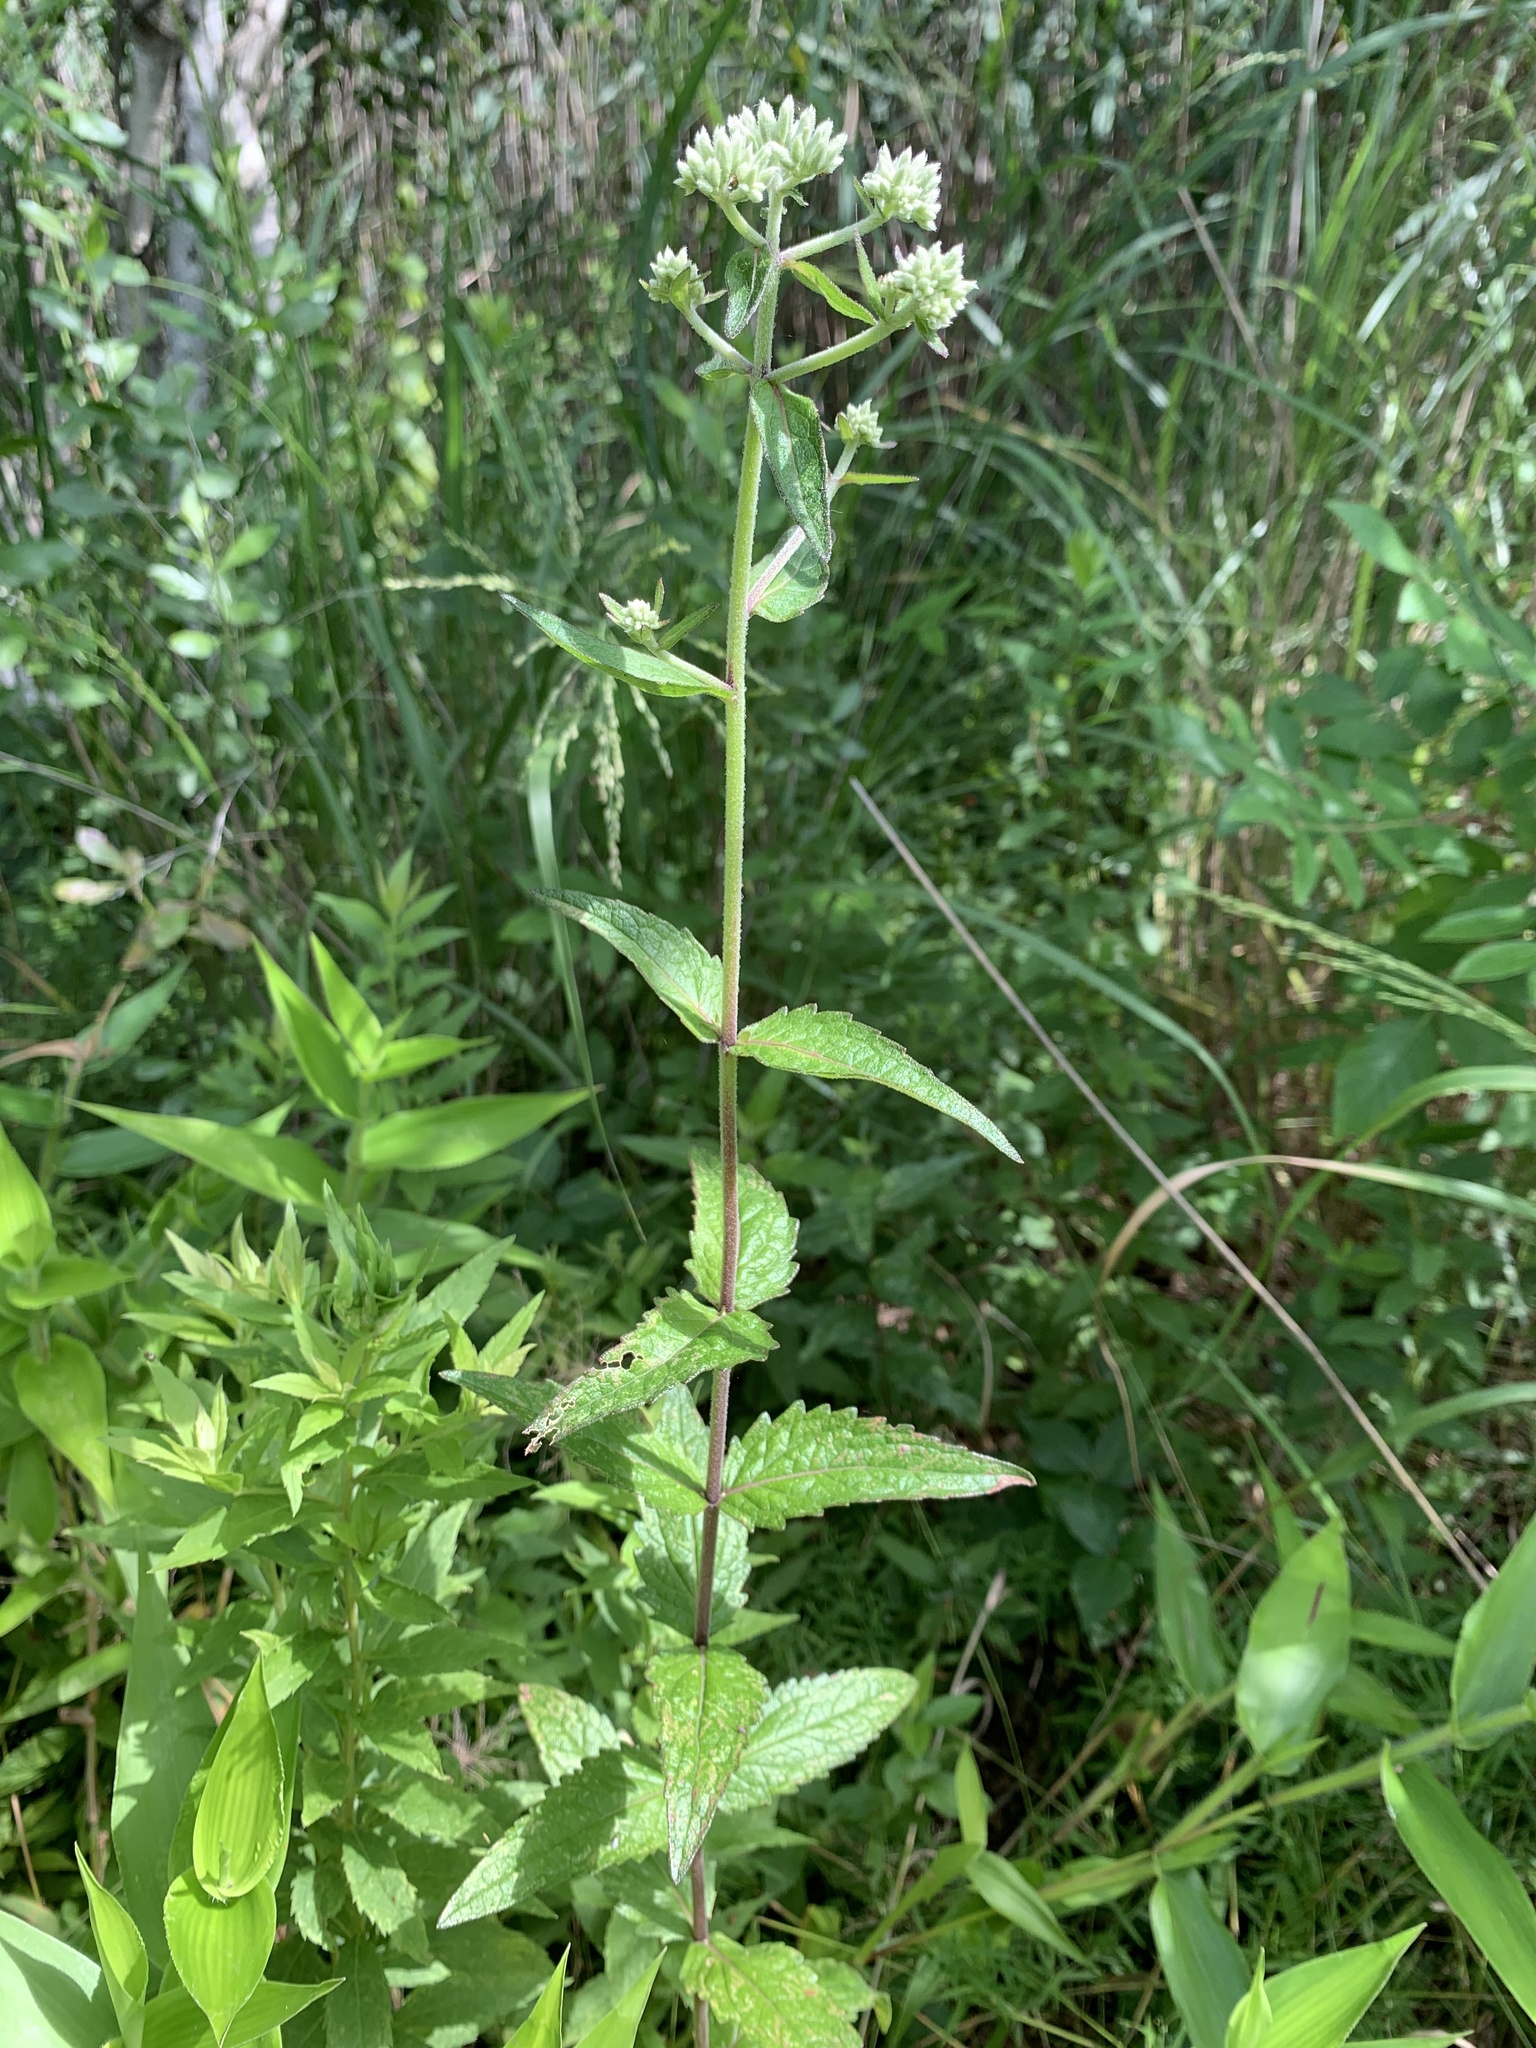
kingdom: Plantae
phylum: Tracheophyta
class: Magnoliopsida
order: Asterales
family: Asteraceae
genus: Eupatorium
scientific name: Eupatorium pilosum
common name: Rough boneset
